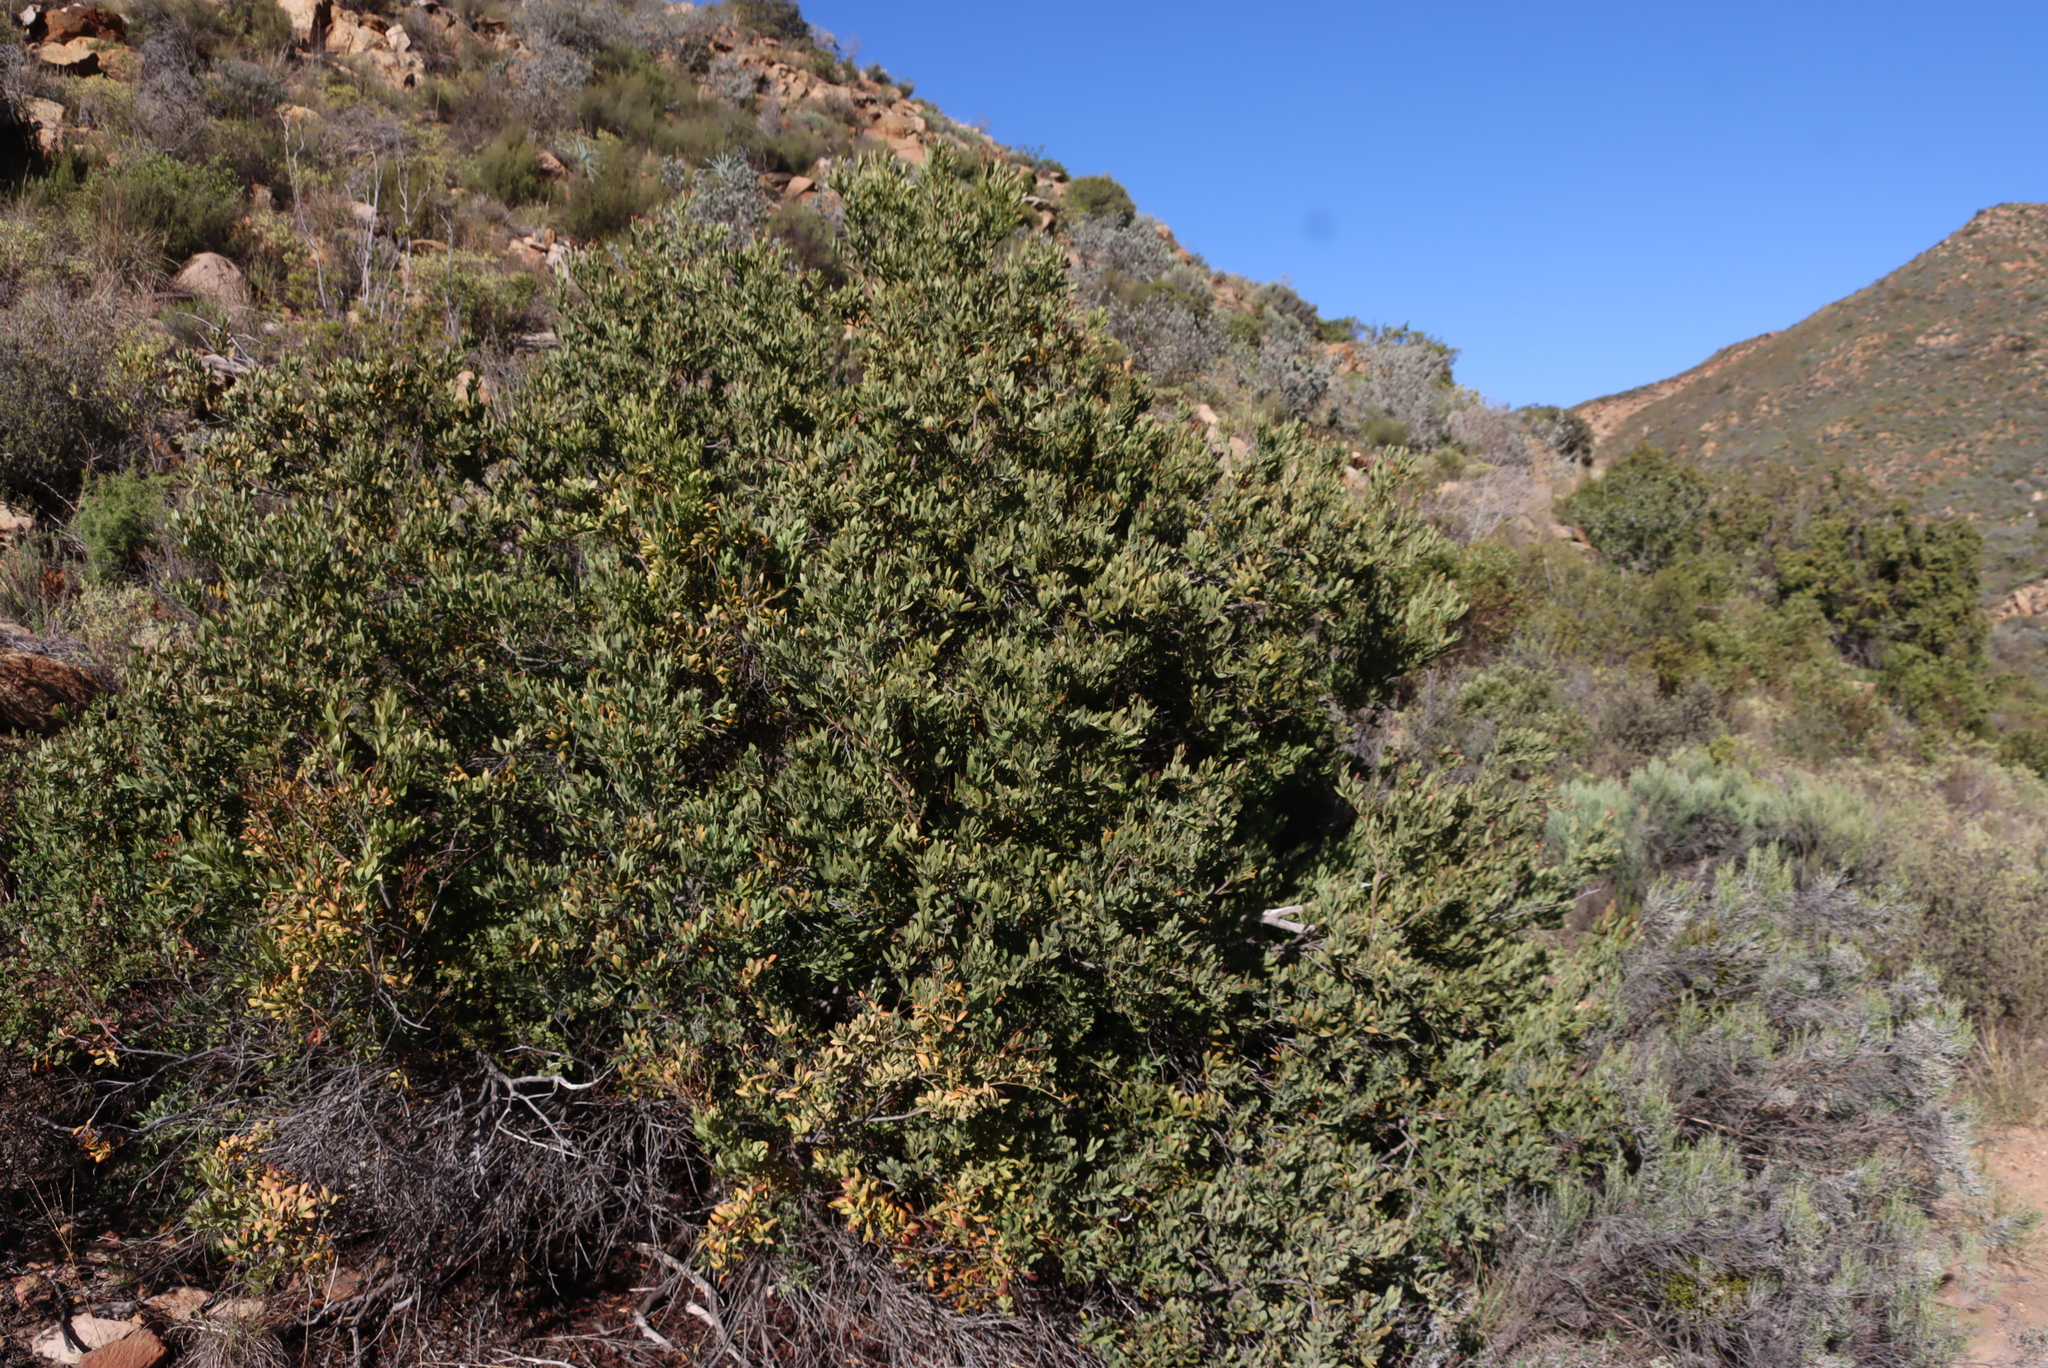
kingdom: Plantae
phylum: Tracheophyta
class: Magnoliopsida
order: Santalales
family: Santalaceae
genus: Osyris
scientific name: Osyris compressa
